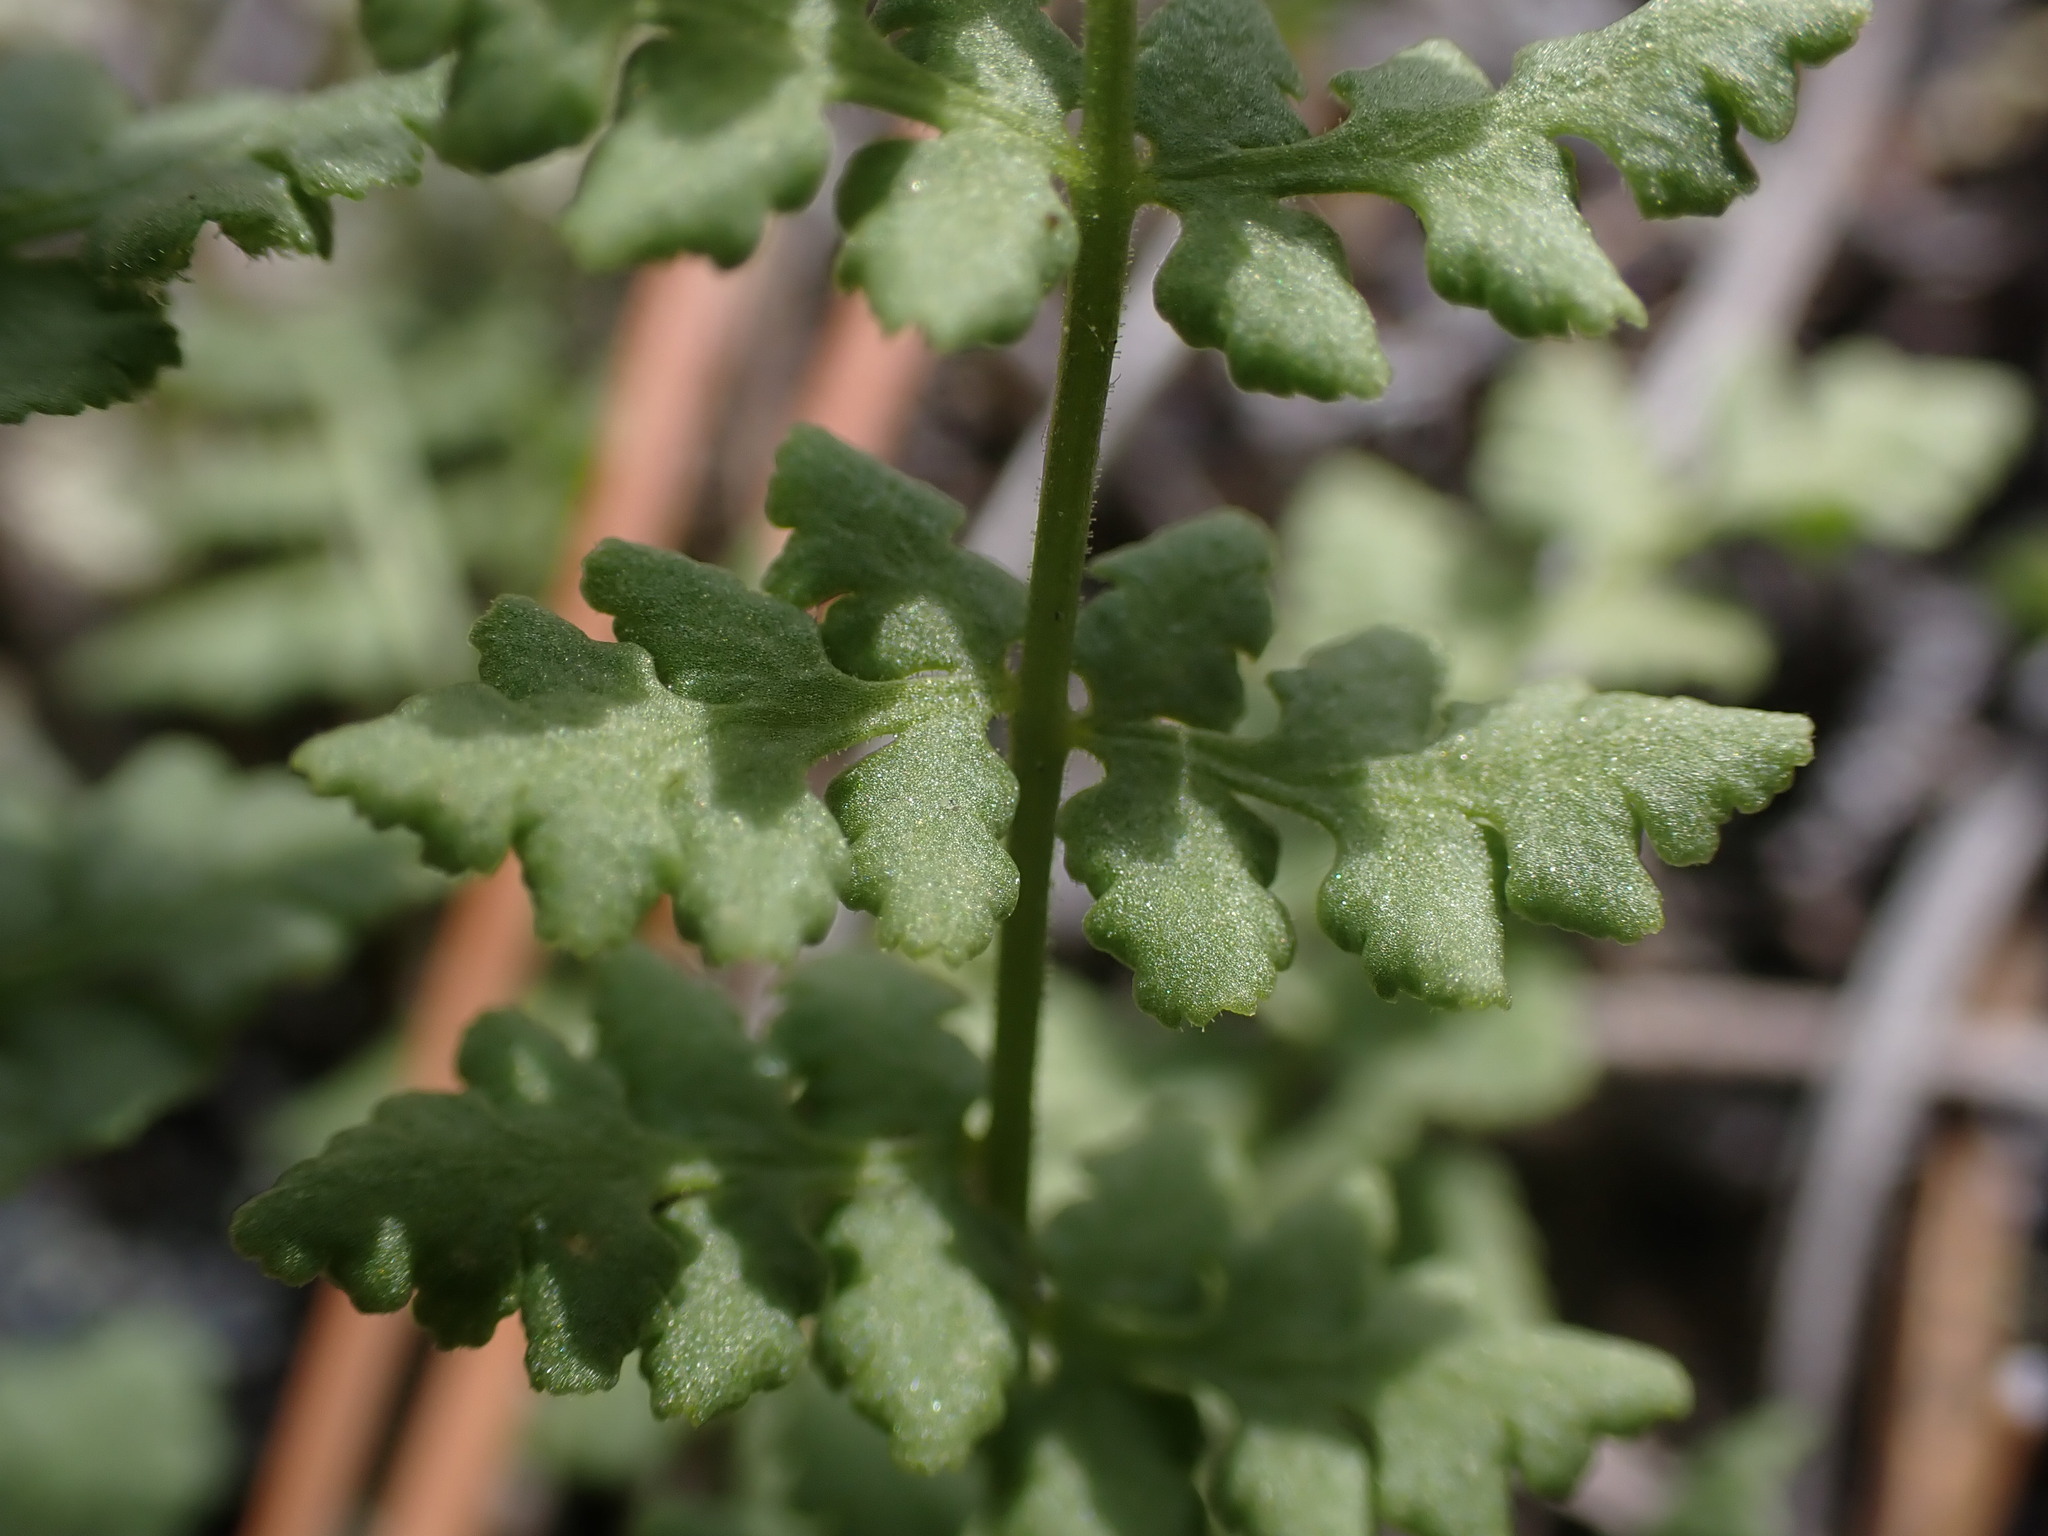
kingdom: Plantae
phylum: Tracheophyta
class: Polypodiopsida
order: Polypodiales
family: Woodsiaceae
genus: Physematium
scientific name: Physematium oreganum
